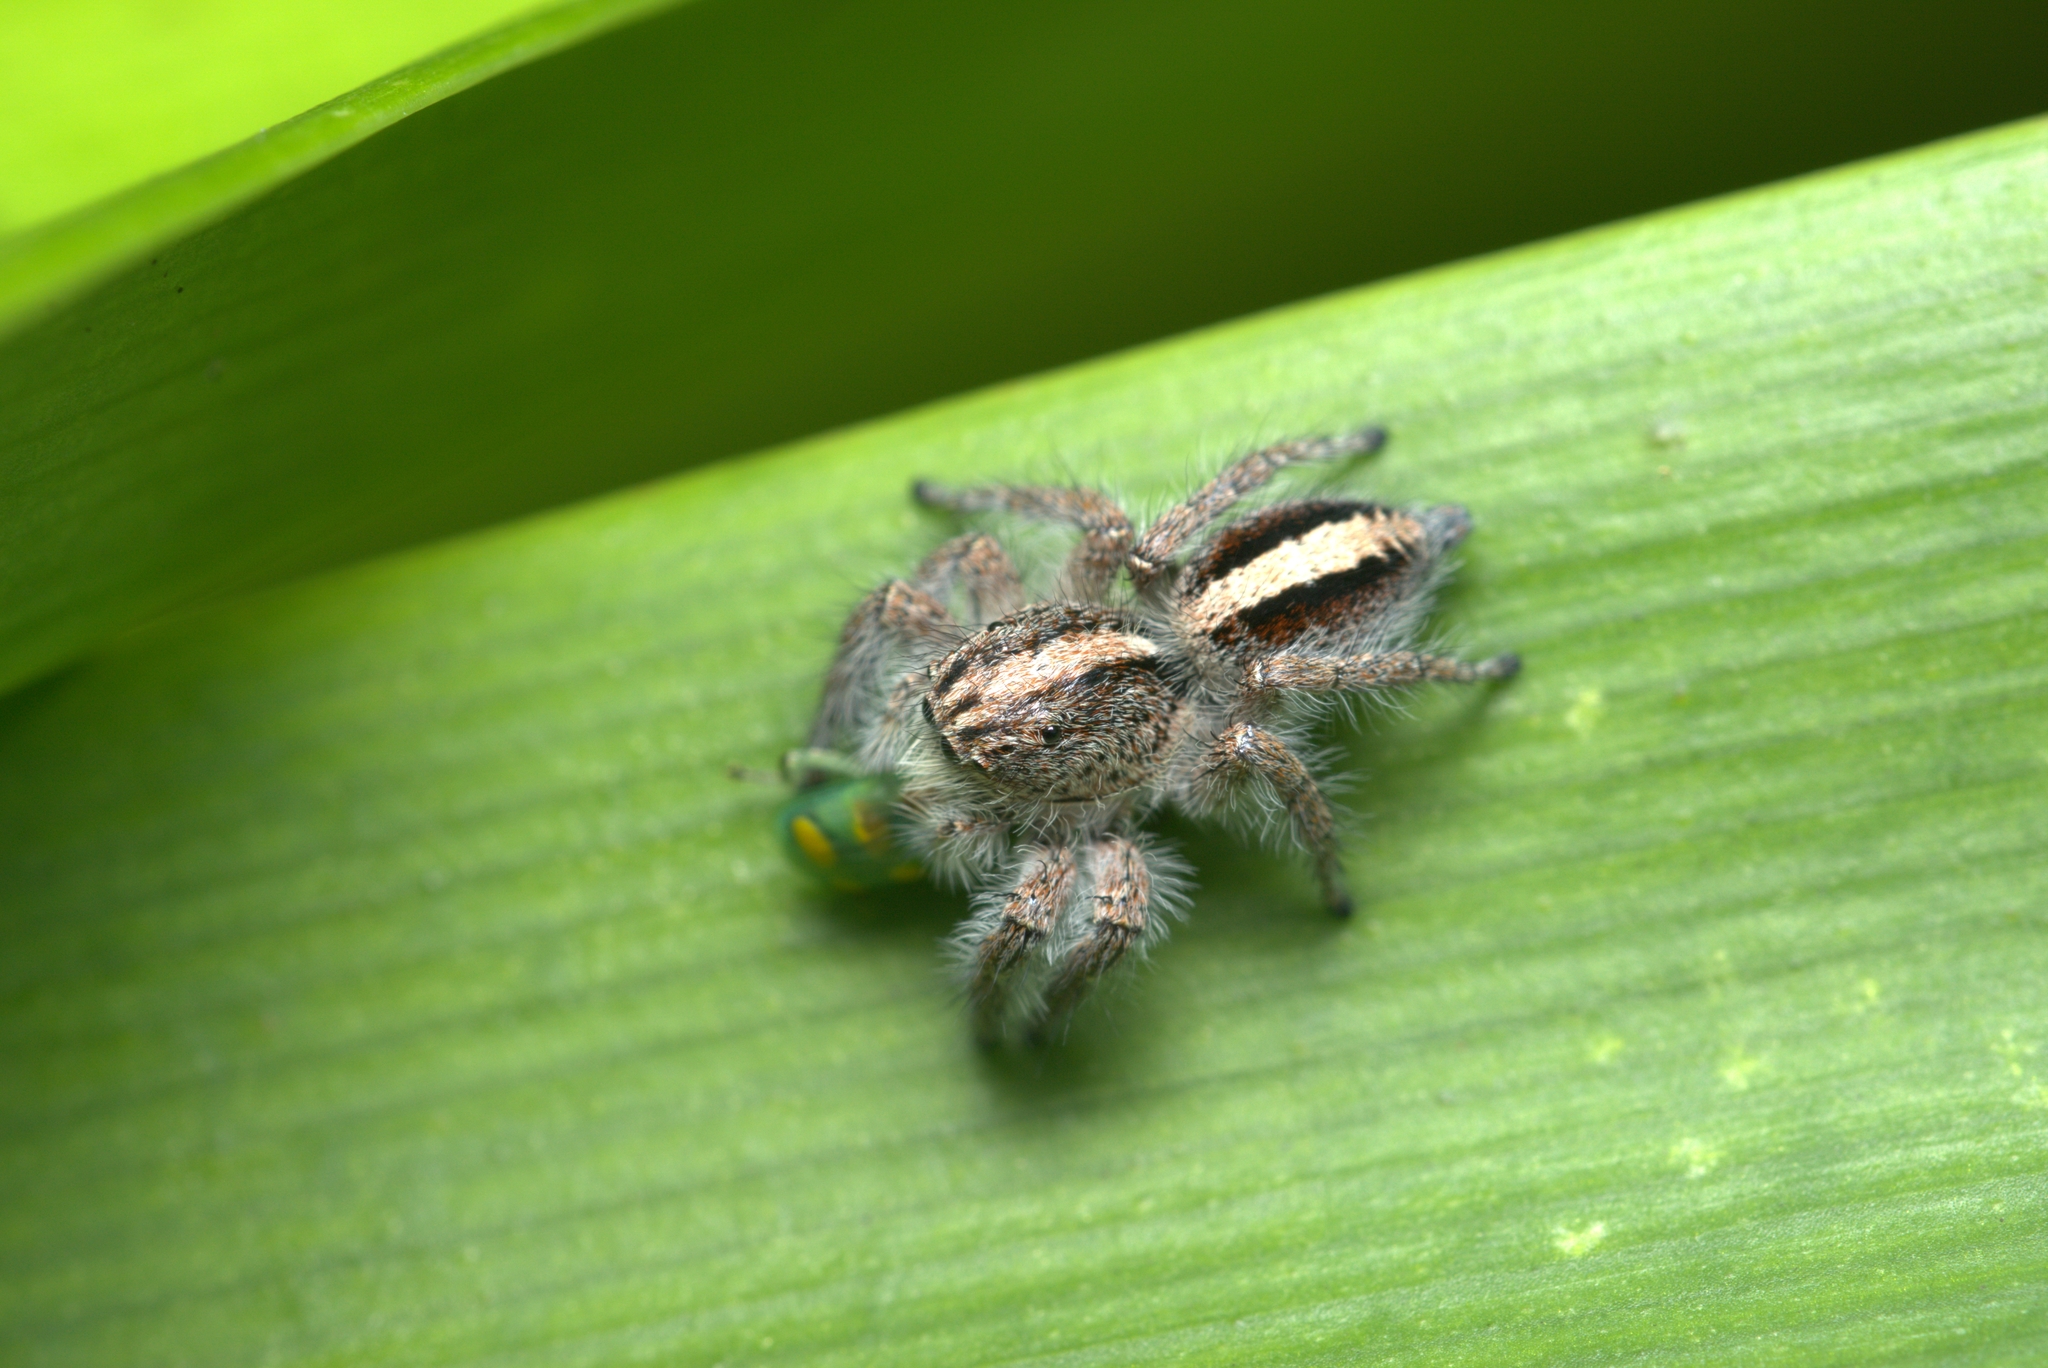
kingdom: Animalia
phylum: Arthropoda
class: Arachnida
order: Araneae
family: Salticidae
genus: Megafreya
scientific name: Megafreya sutrix
